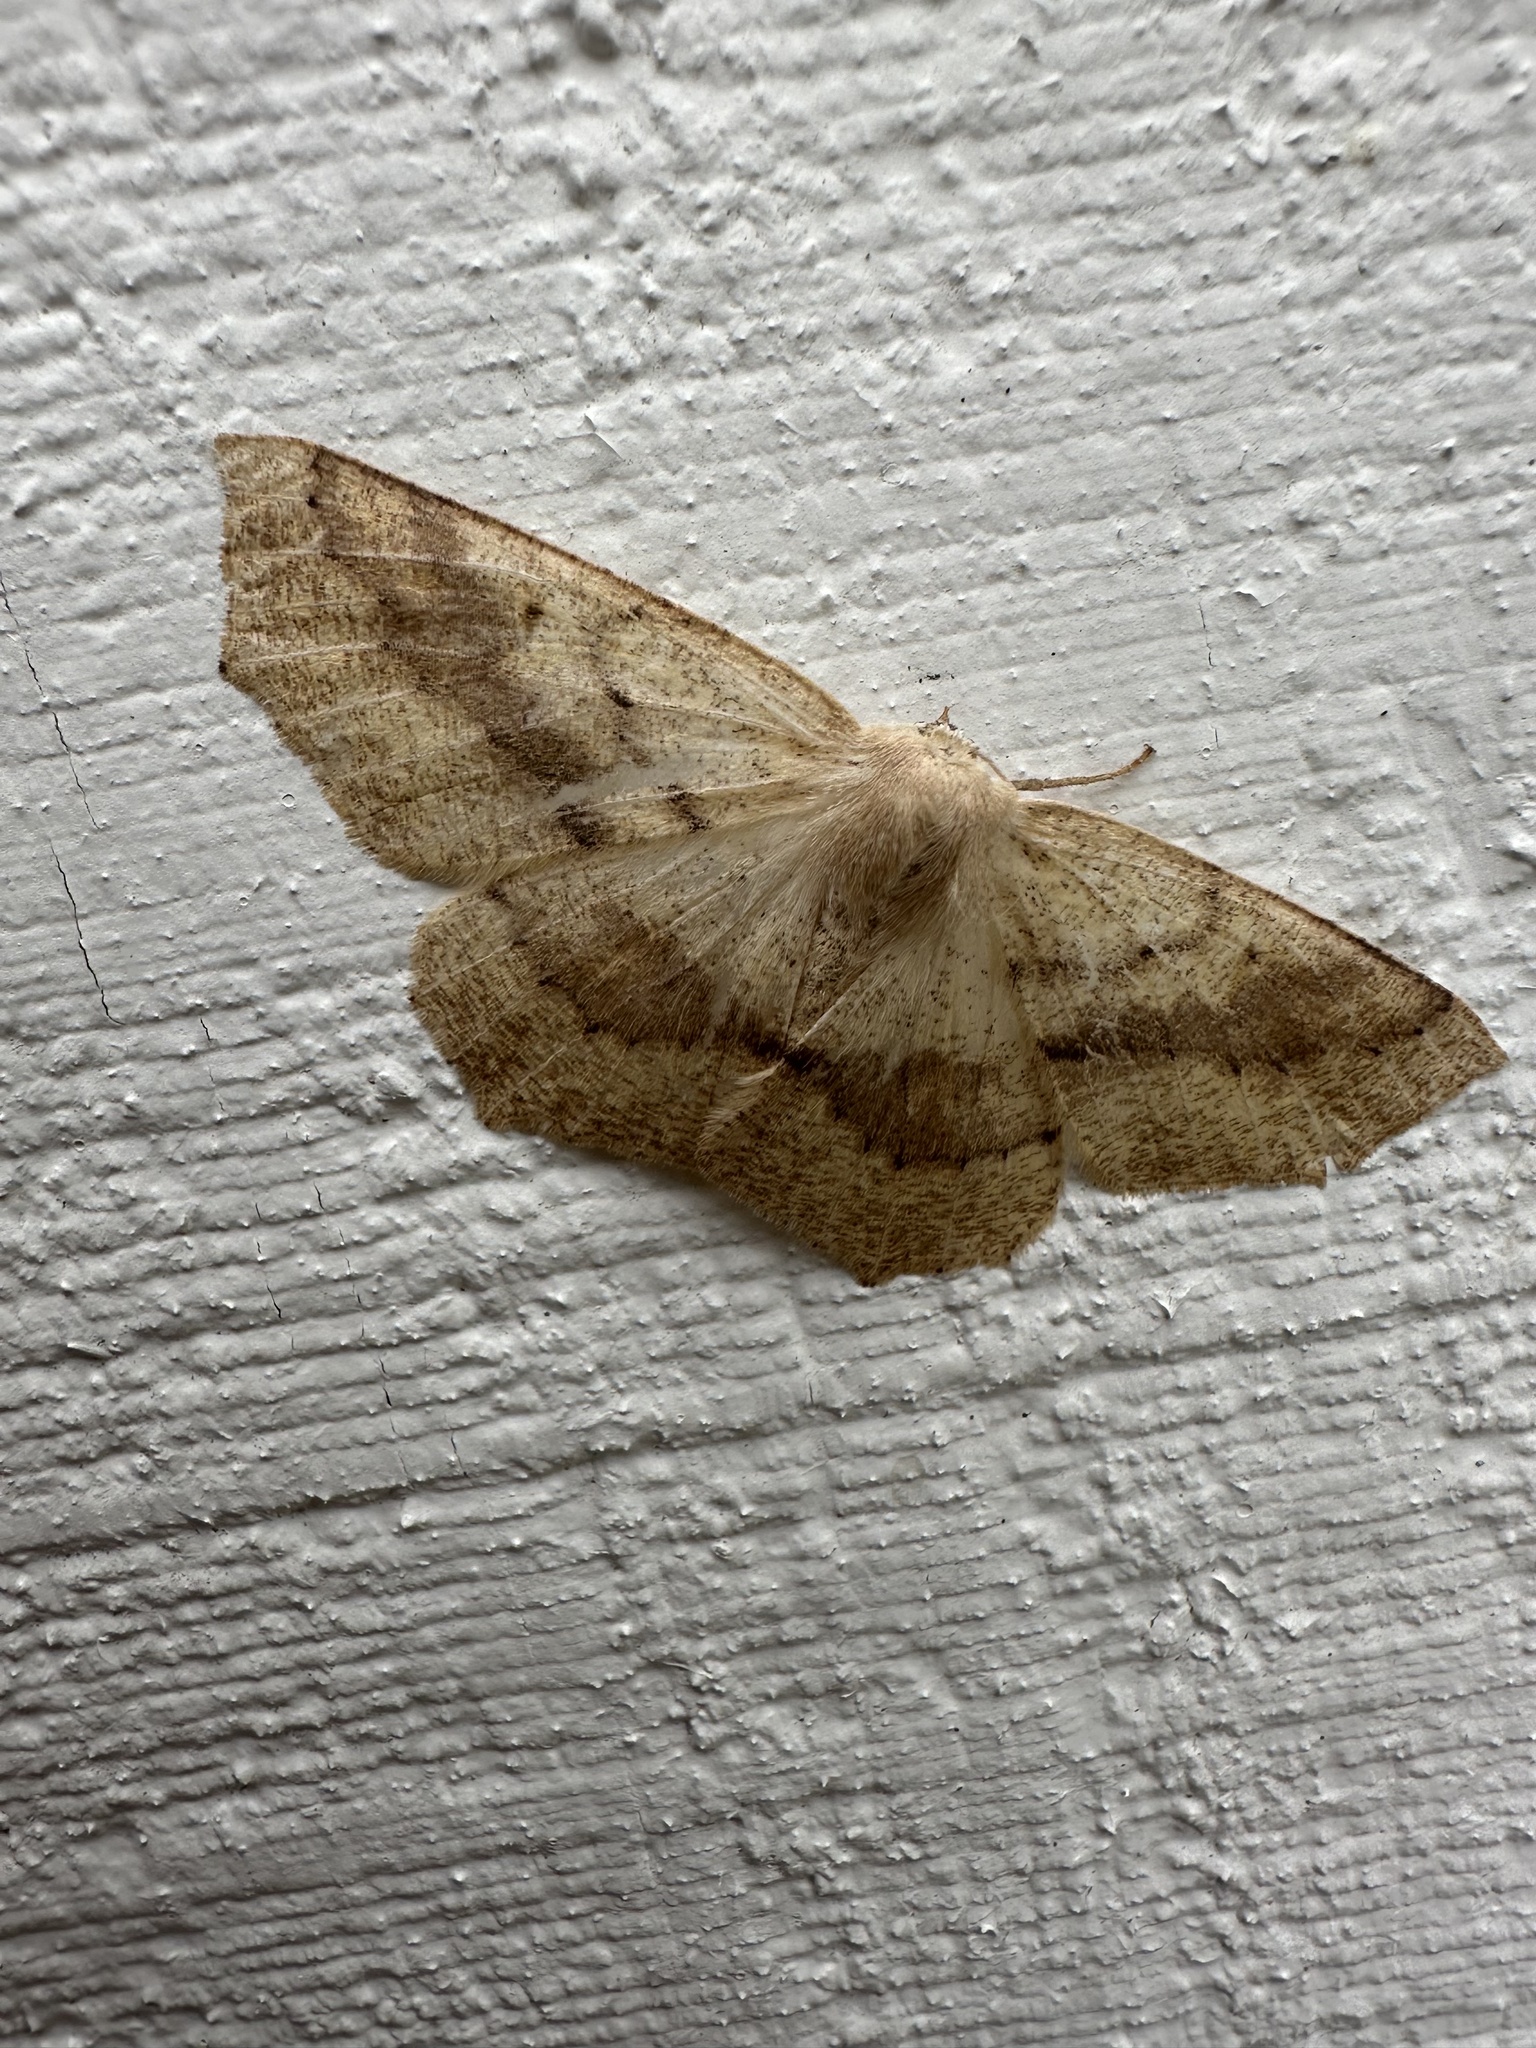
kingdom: Animalia
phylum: Arthropoda
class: Insecta
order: Lepidoptera
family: Geometridae
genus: Sabulodes
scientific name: Sabulodes aegrotata
